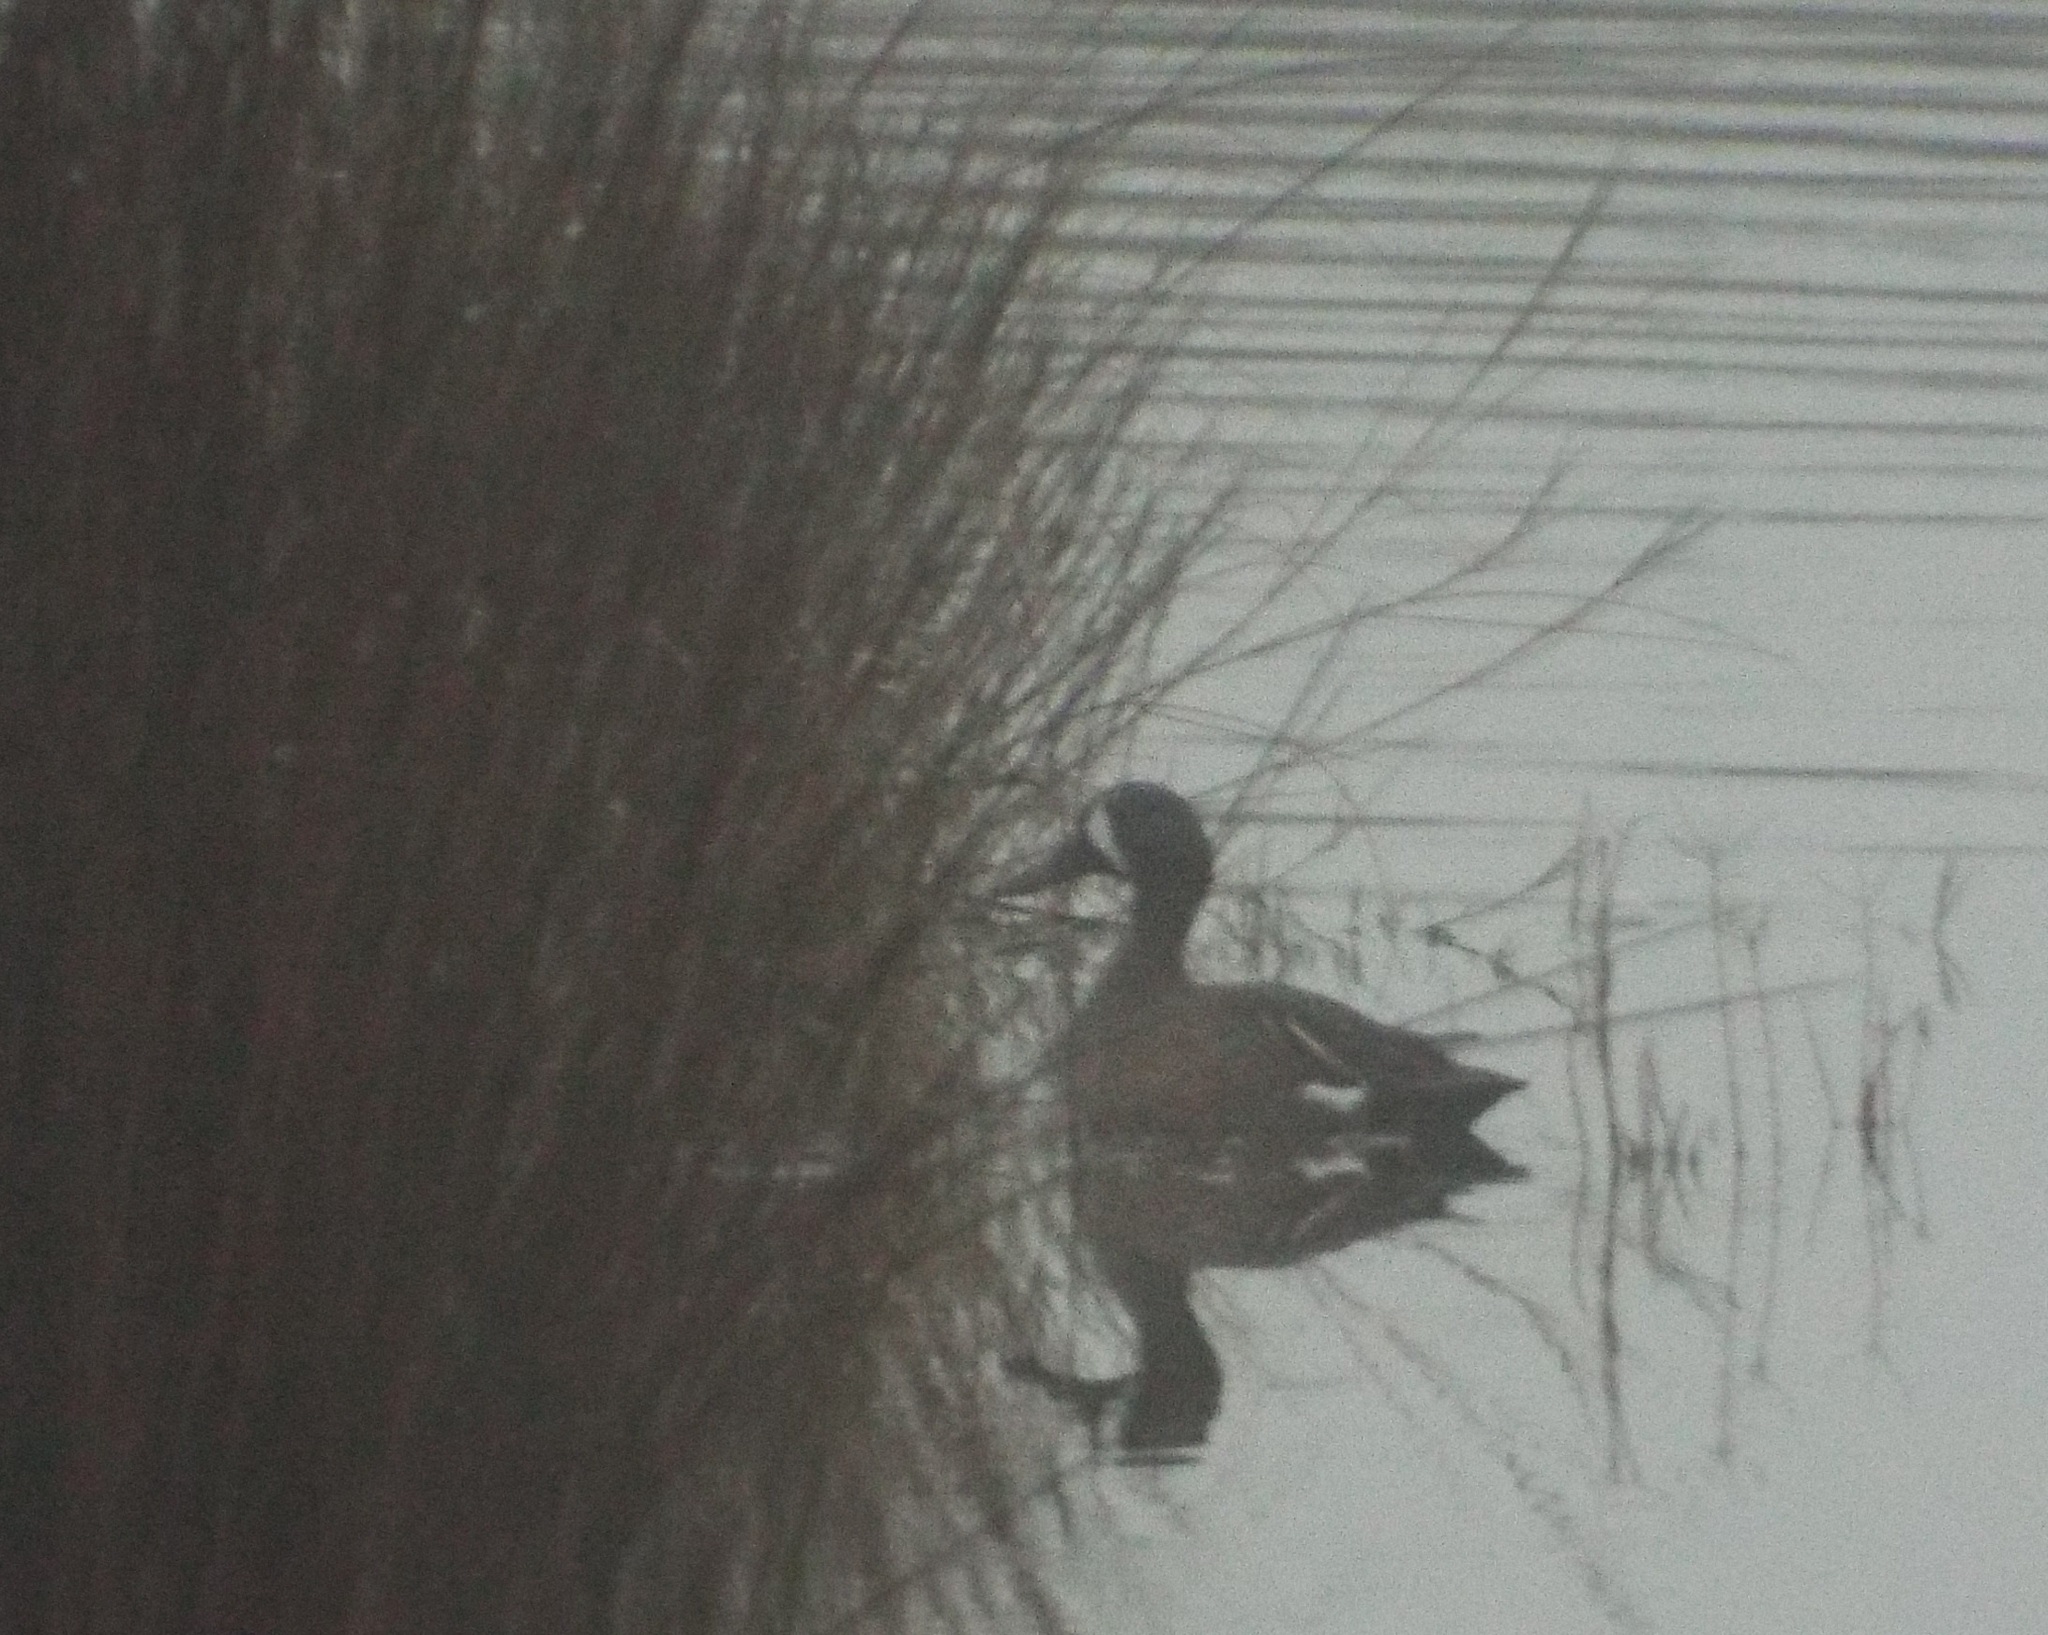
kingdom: Animalia
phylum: Chordata
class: Aves
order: Anseriformes
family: Anatidae
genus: Spatula
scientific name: Spatula discors
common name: Blue-winged teal
